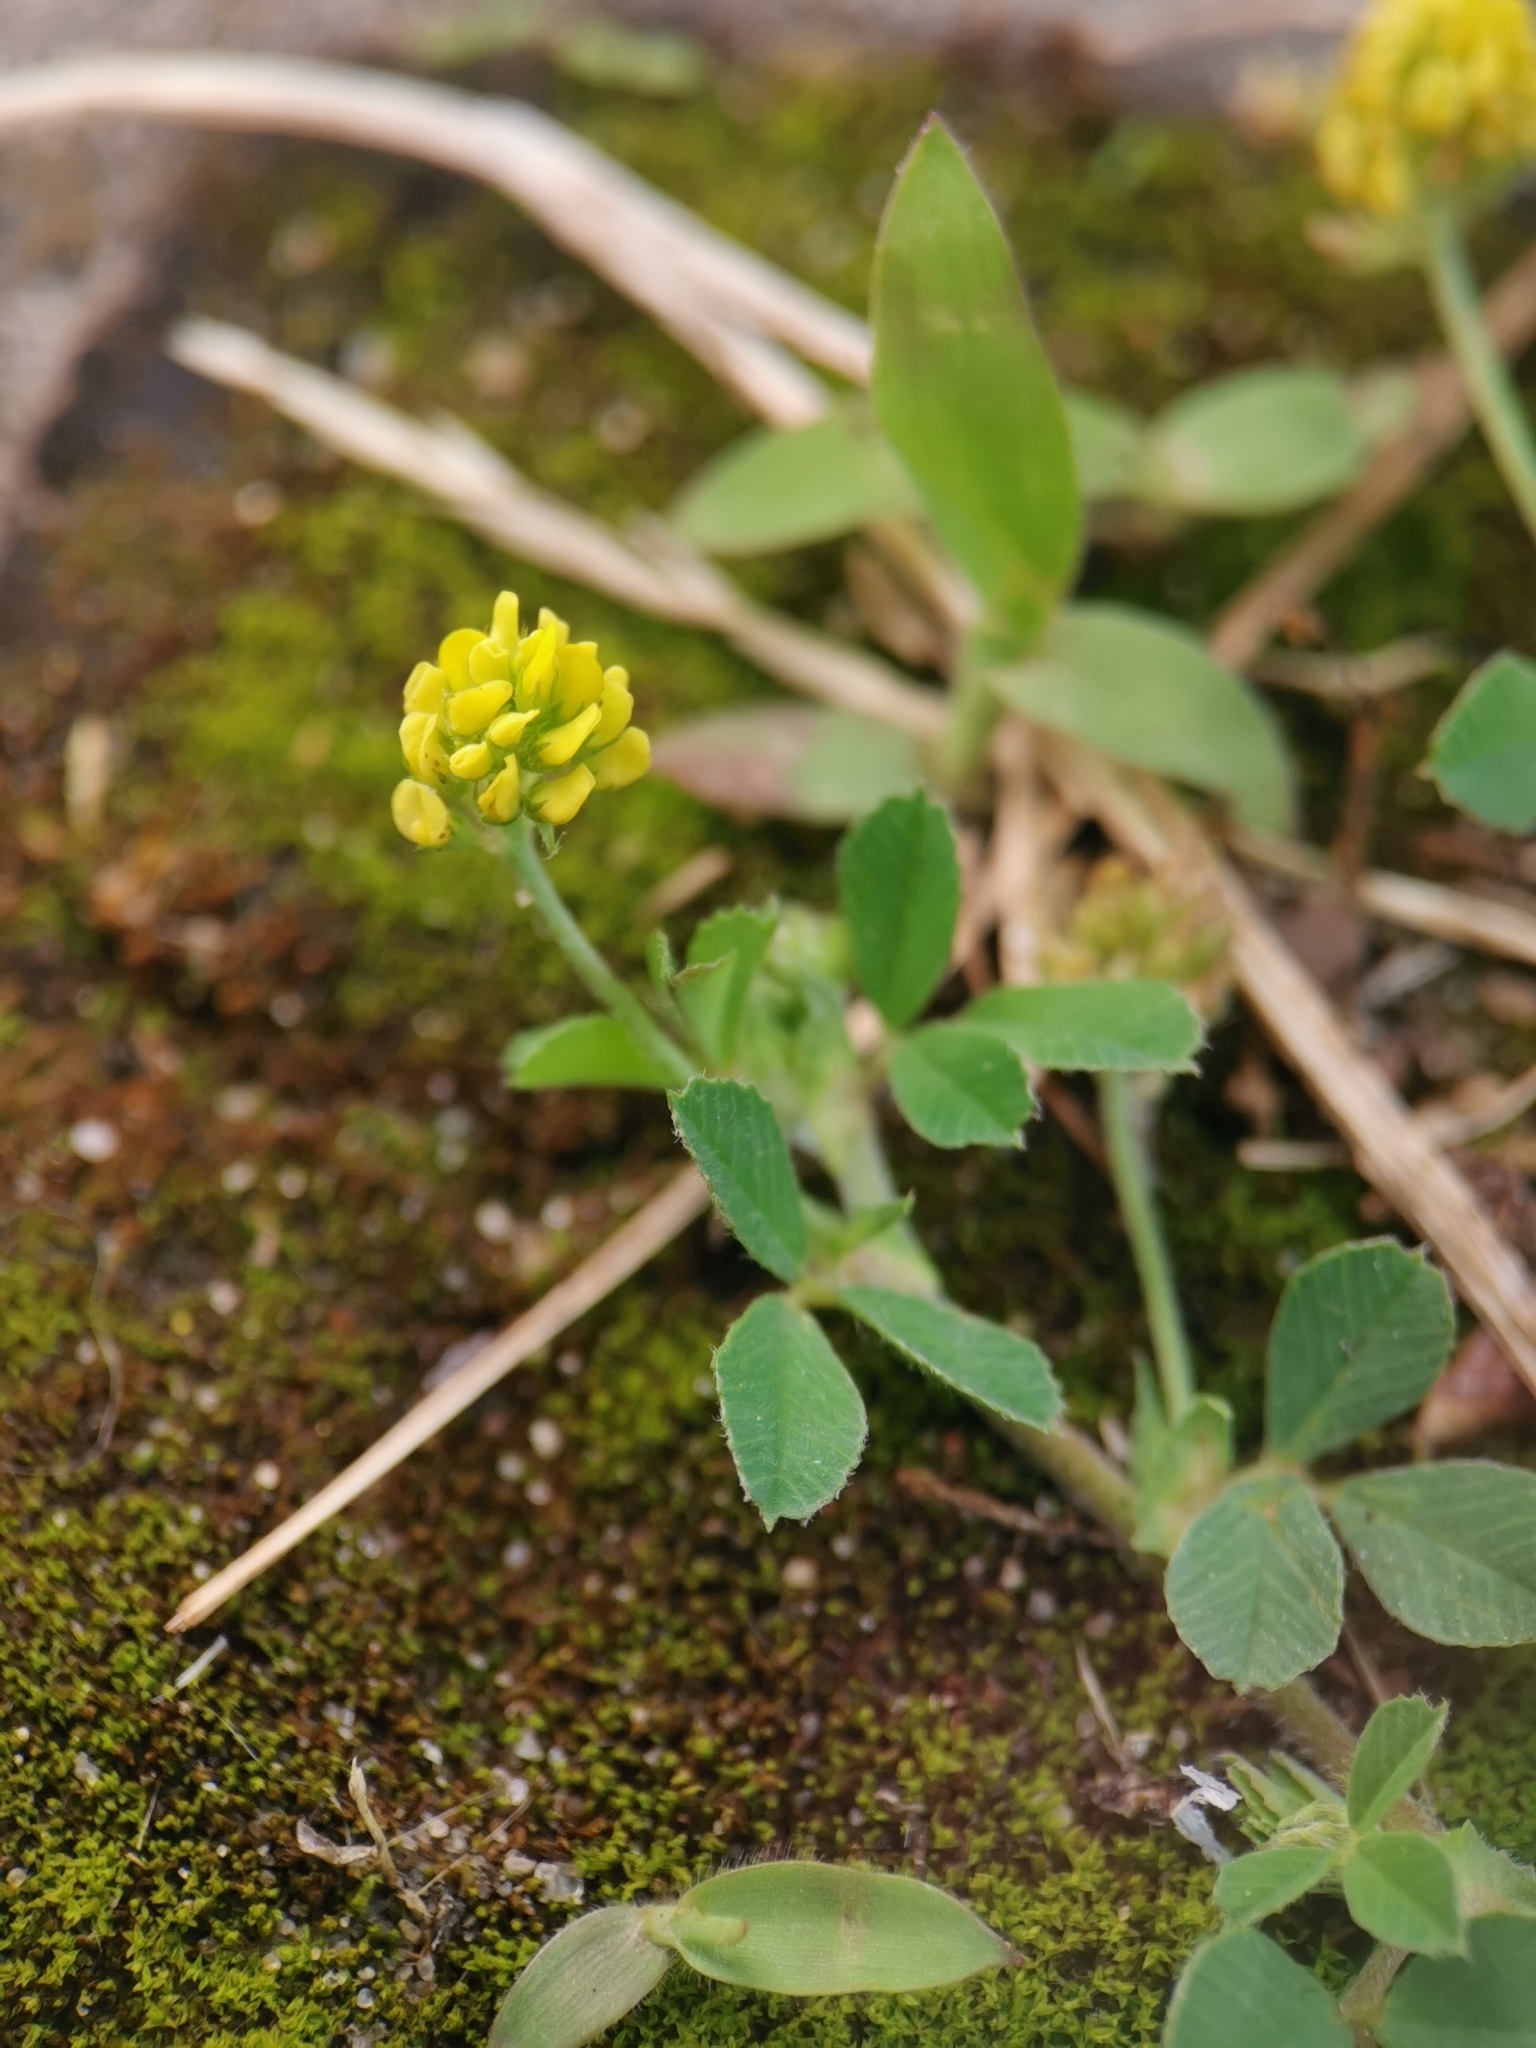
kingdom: Plantae
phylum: Tracheophyta
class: Magnoliopsida
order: Fabales
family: Fabaceae
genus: Medicago
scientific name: Medicago lupulina
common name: Black medick
